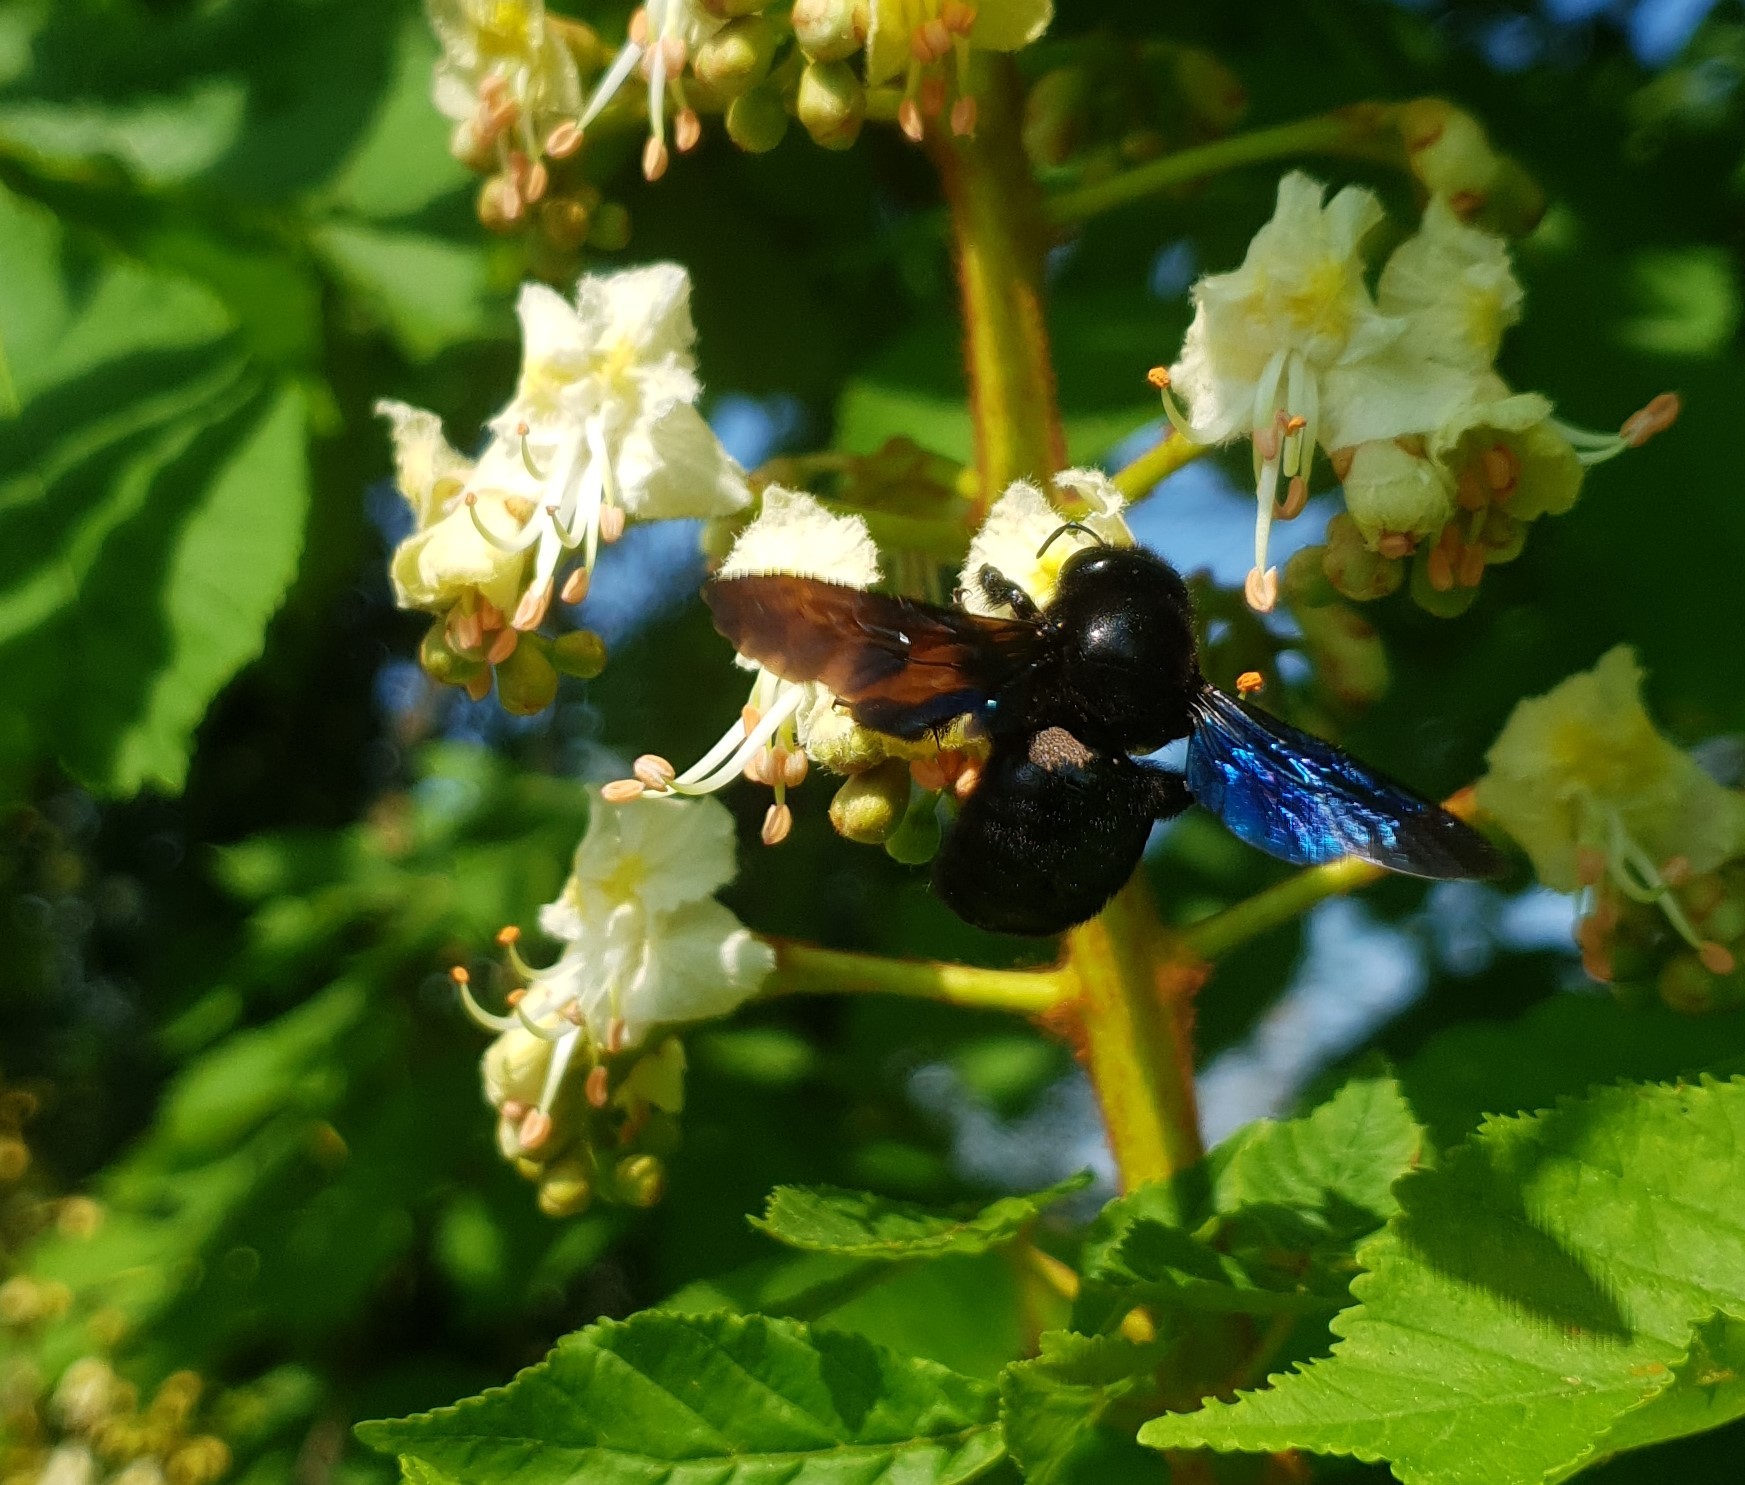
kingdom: Animalia
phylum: Arthropoda
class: Insecta
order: Hymenoptera
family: Apidae
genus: Xylocopa
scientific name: Xylocopa
